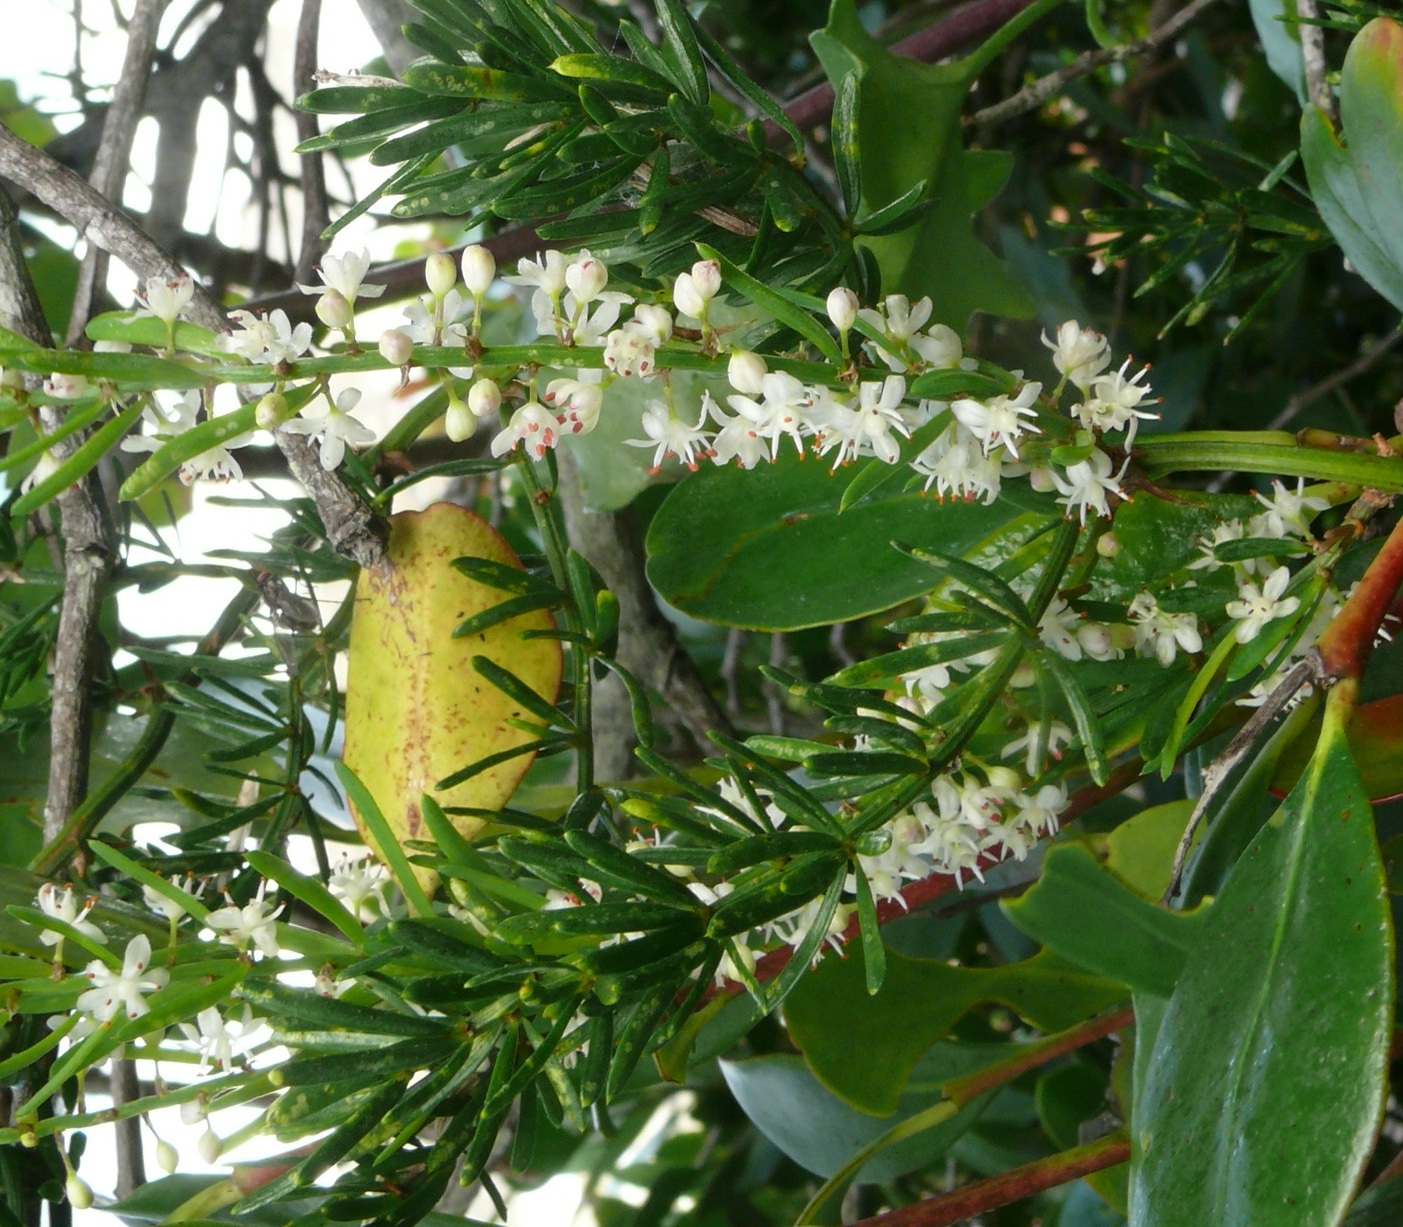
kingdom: Plantae
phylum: Tracheophyta
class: Liliopsida
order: Asparagales
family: Asparagaceae
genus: Asparagus
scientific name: Asparagus aethiopicus
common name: Sprenger's asparagus fern
